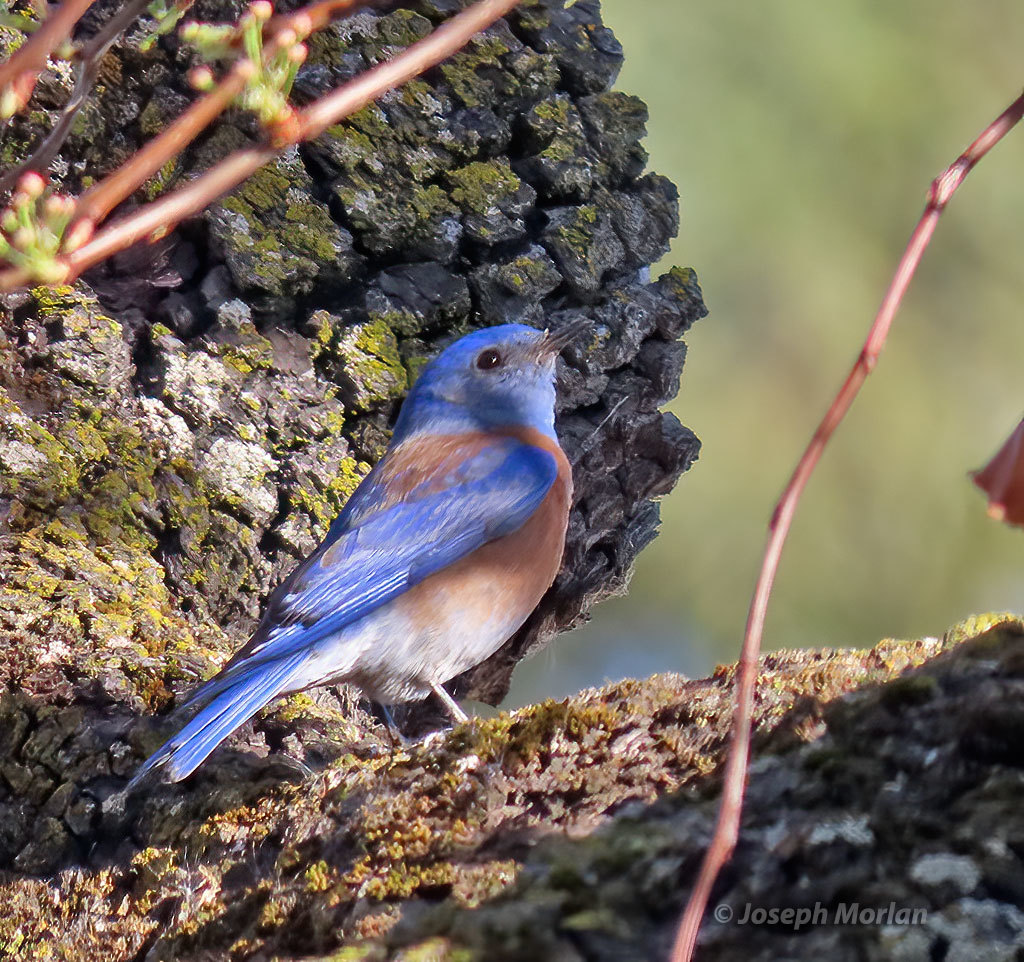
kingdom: Animalia
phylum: Chordata
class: Aves
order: Passeriformes
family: Turdidae
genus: Sialia
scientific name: Sialia mexicana
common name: Western bluebird
